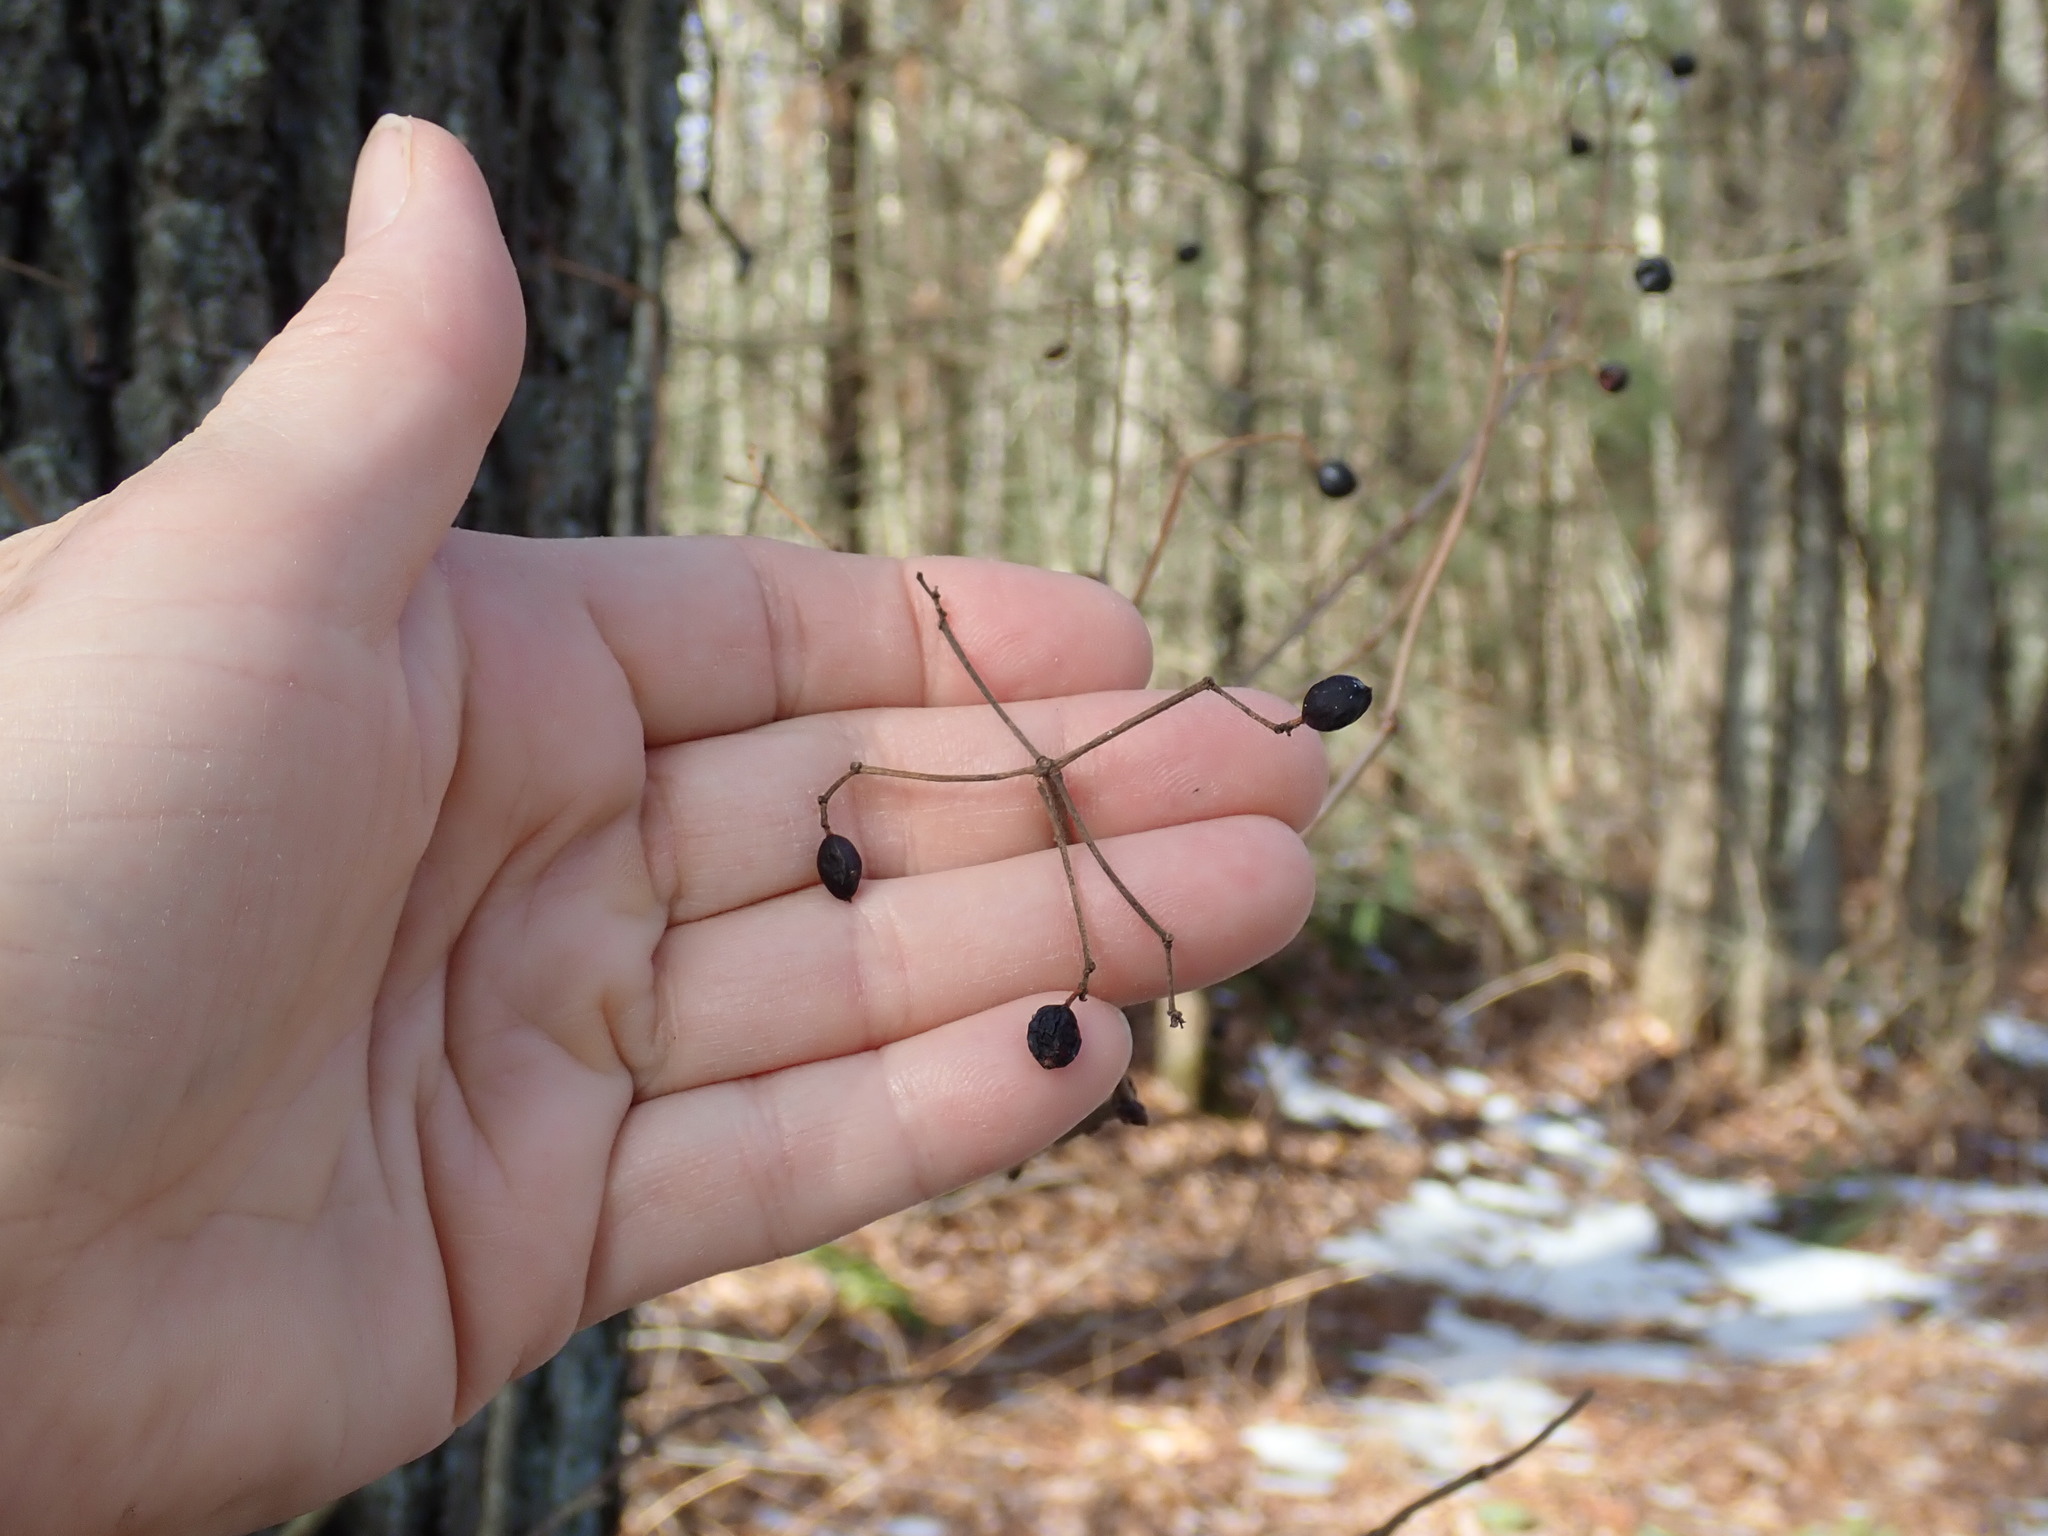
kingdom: Plantae
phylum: Tracheophyta
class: Magnoliopsida
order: Dipsacales
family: Viburnaceae
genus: Viburnum
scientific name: Viburnum acerifolium
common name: Dockmackie
